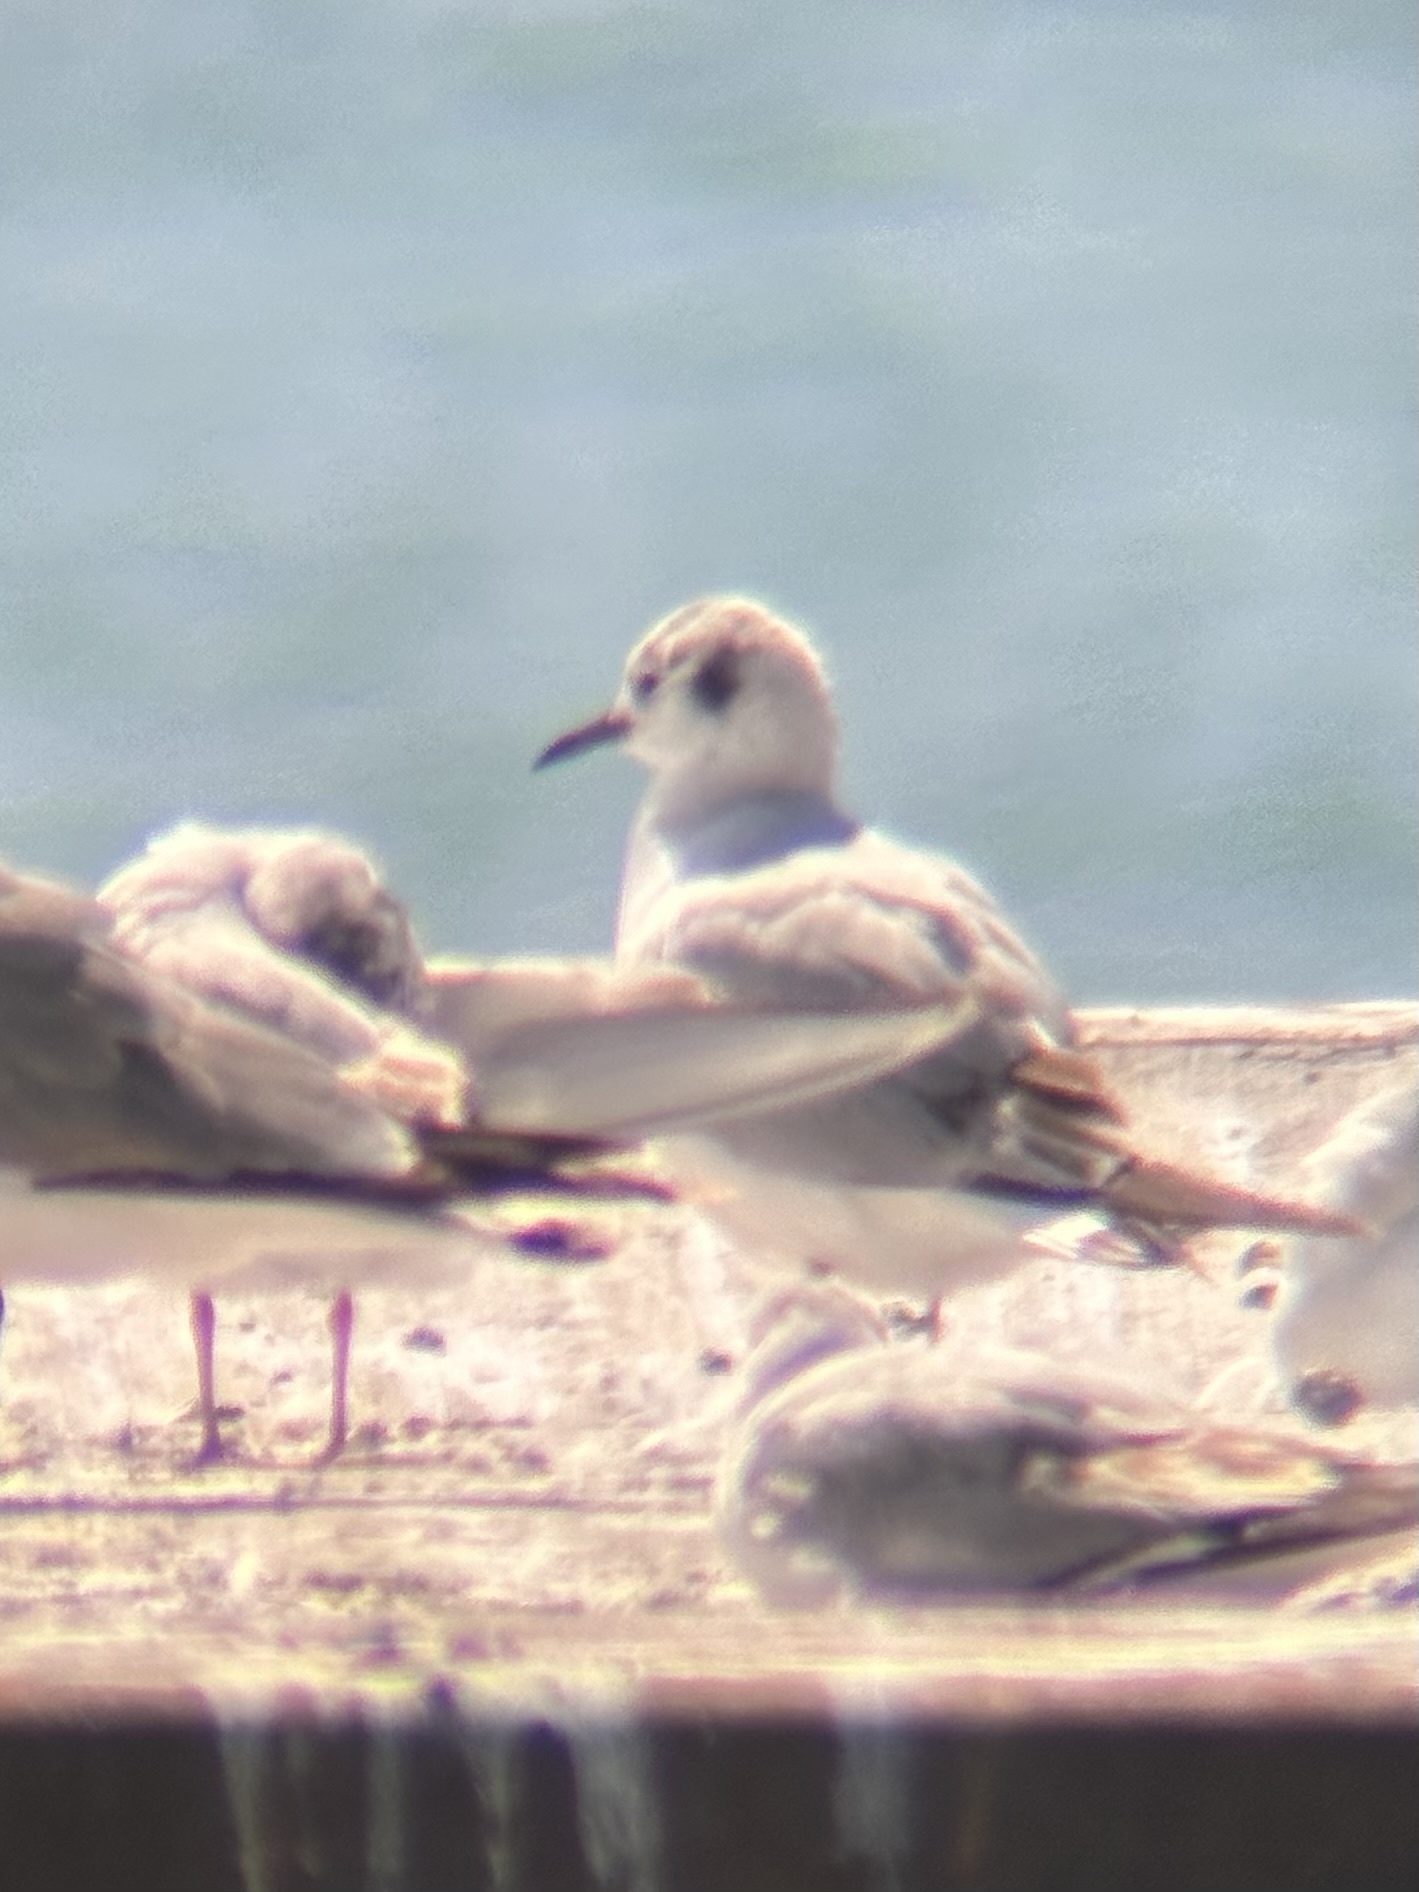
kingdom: Animalia
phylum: Chordata
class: Aves
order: Charadriiformes
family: Laridae
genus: Chroicocephalus
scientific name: Chroicocephalus philadelphia
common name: Bonaparte's gull
